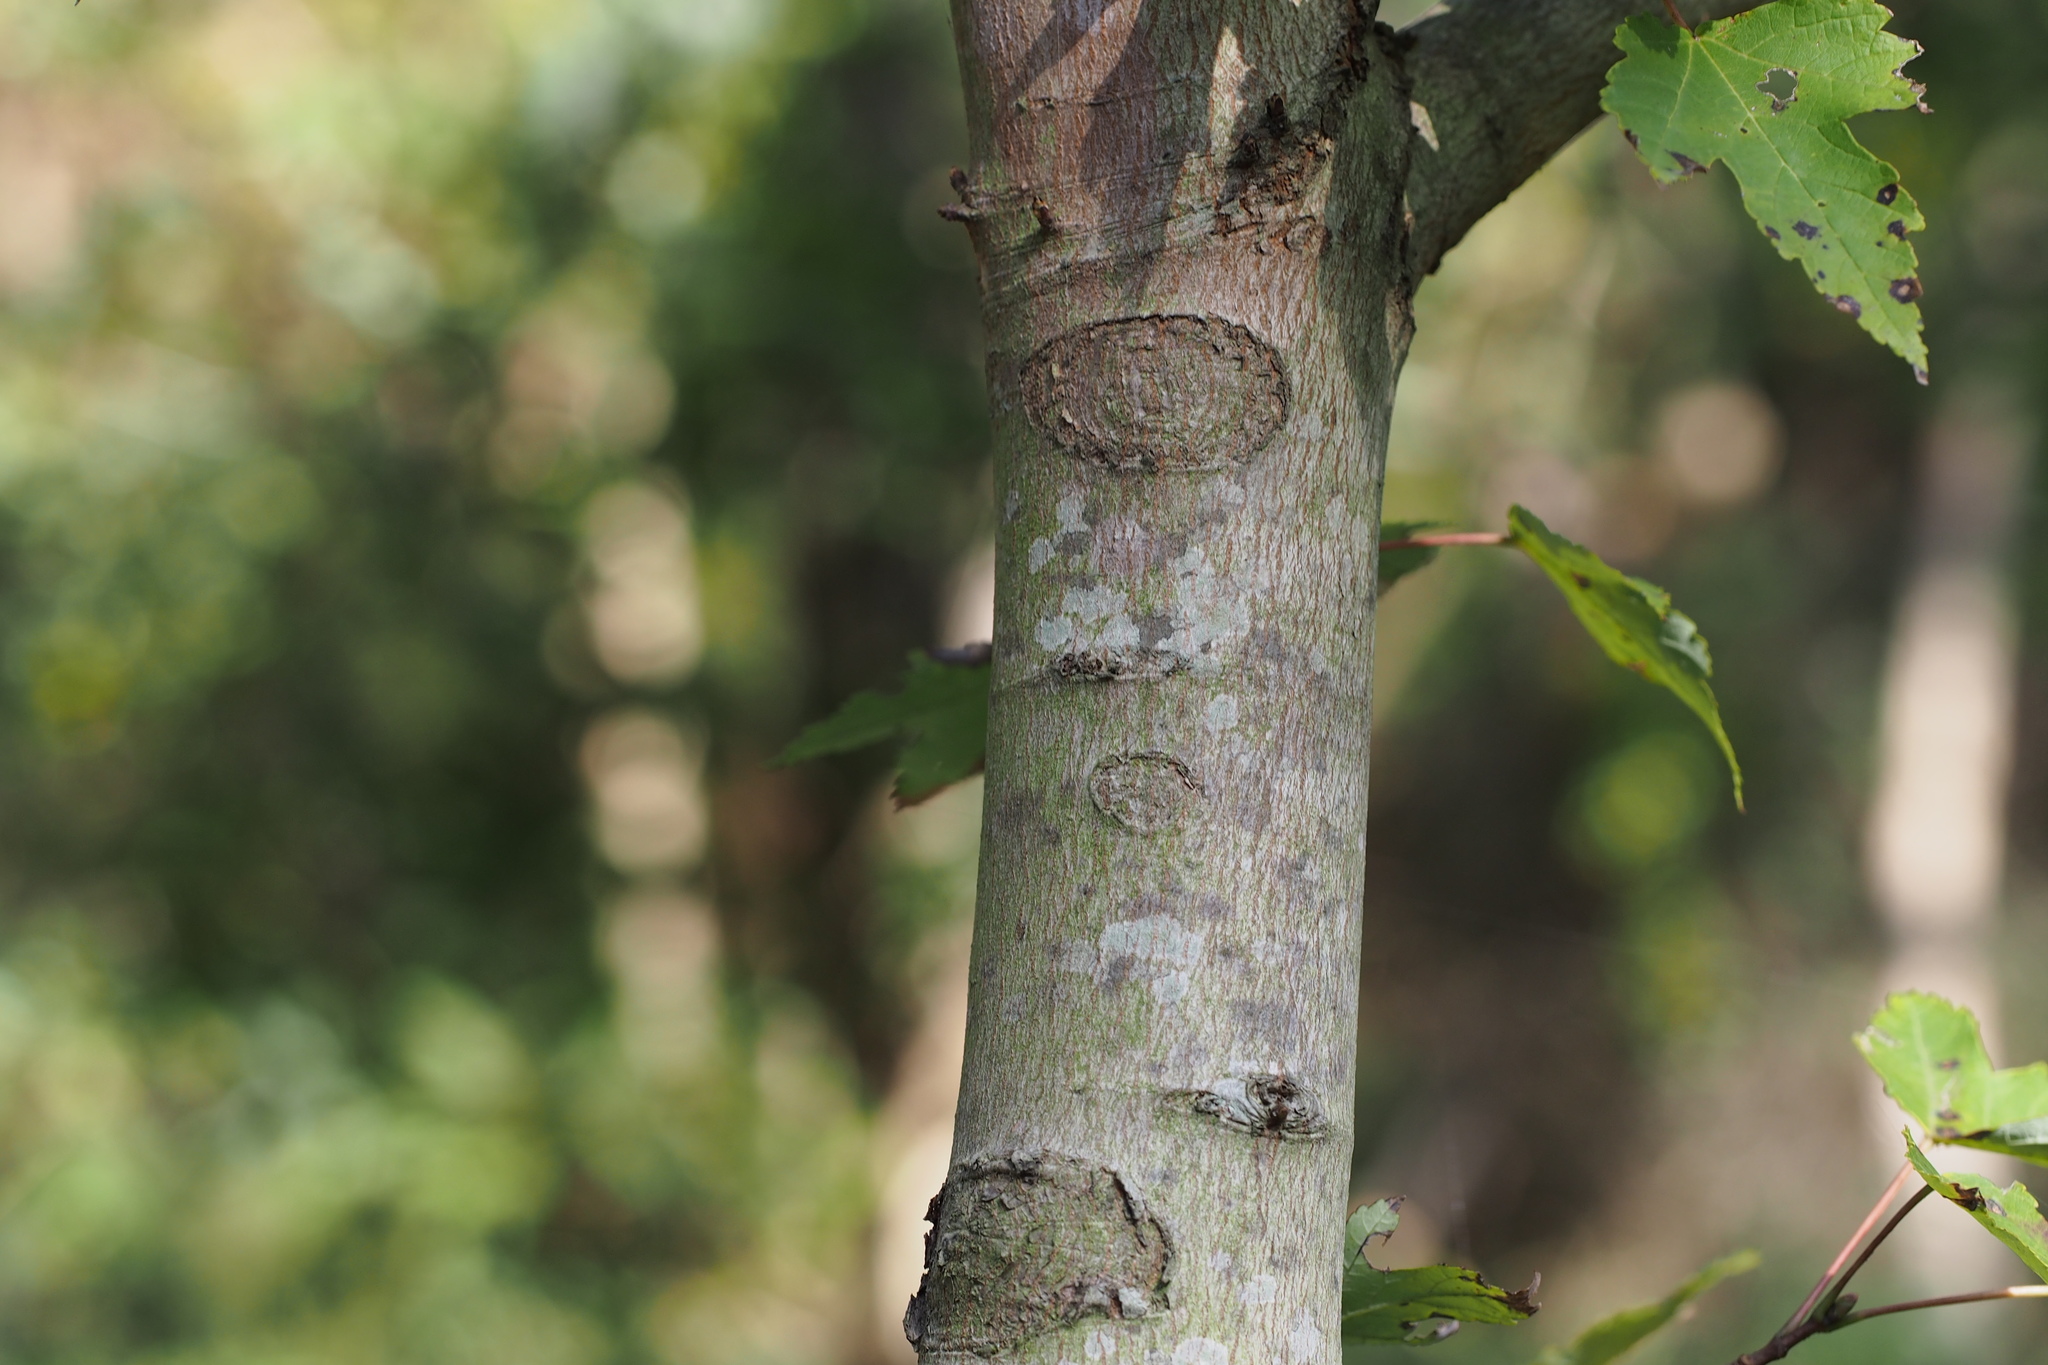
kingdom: Plantae
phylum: Tracheophyta
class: Magnoliopsida
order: Sapindales
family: Sapindaceae
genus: Acer
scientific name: Acer pycnanthum
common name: Japanese red maple
